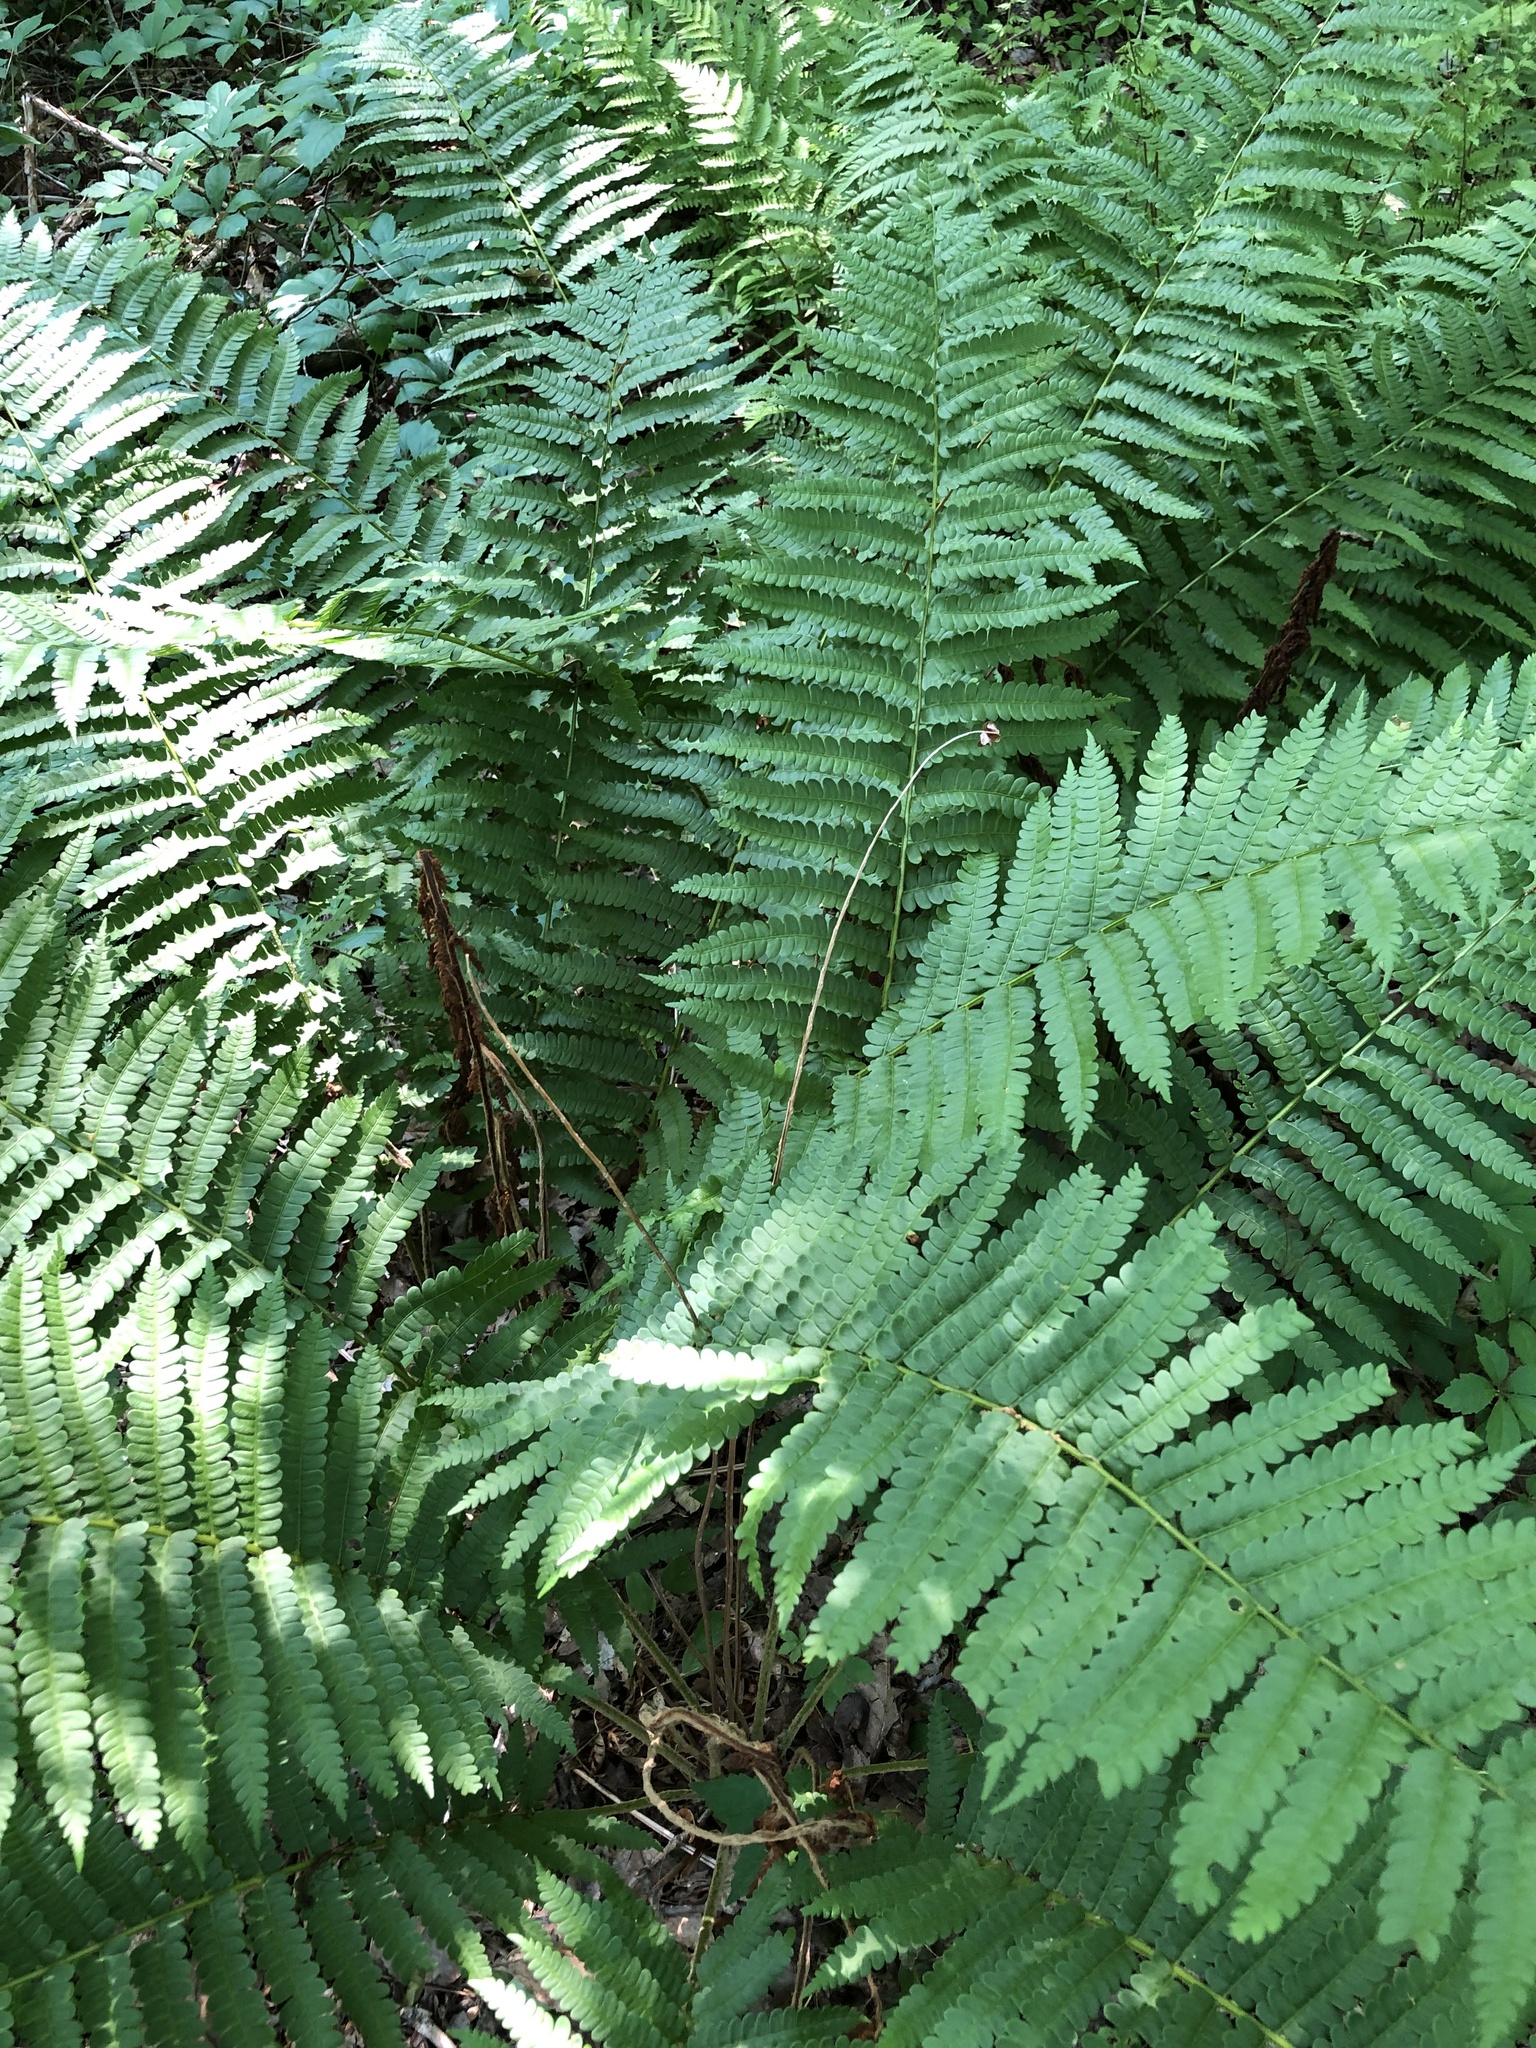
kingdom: Plantae
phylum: Tracheophyta
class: Polypodiopsida
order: Osmundales
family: Osmundaceae
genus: Osmundastrum
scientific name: Osmundastrum cinnamomeum
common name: Cinnamon fern
